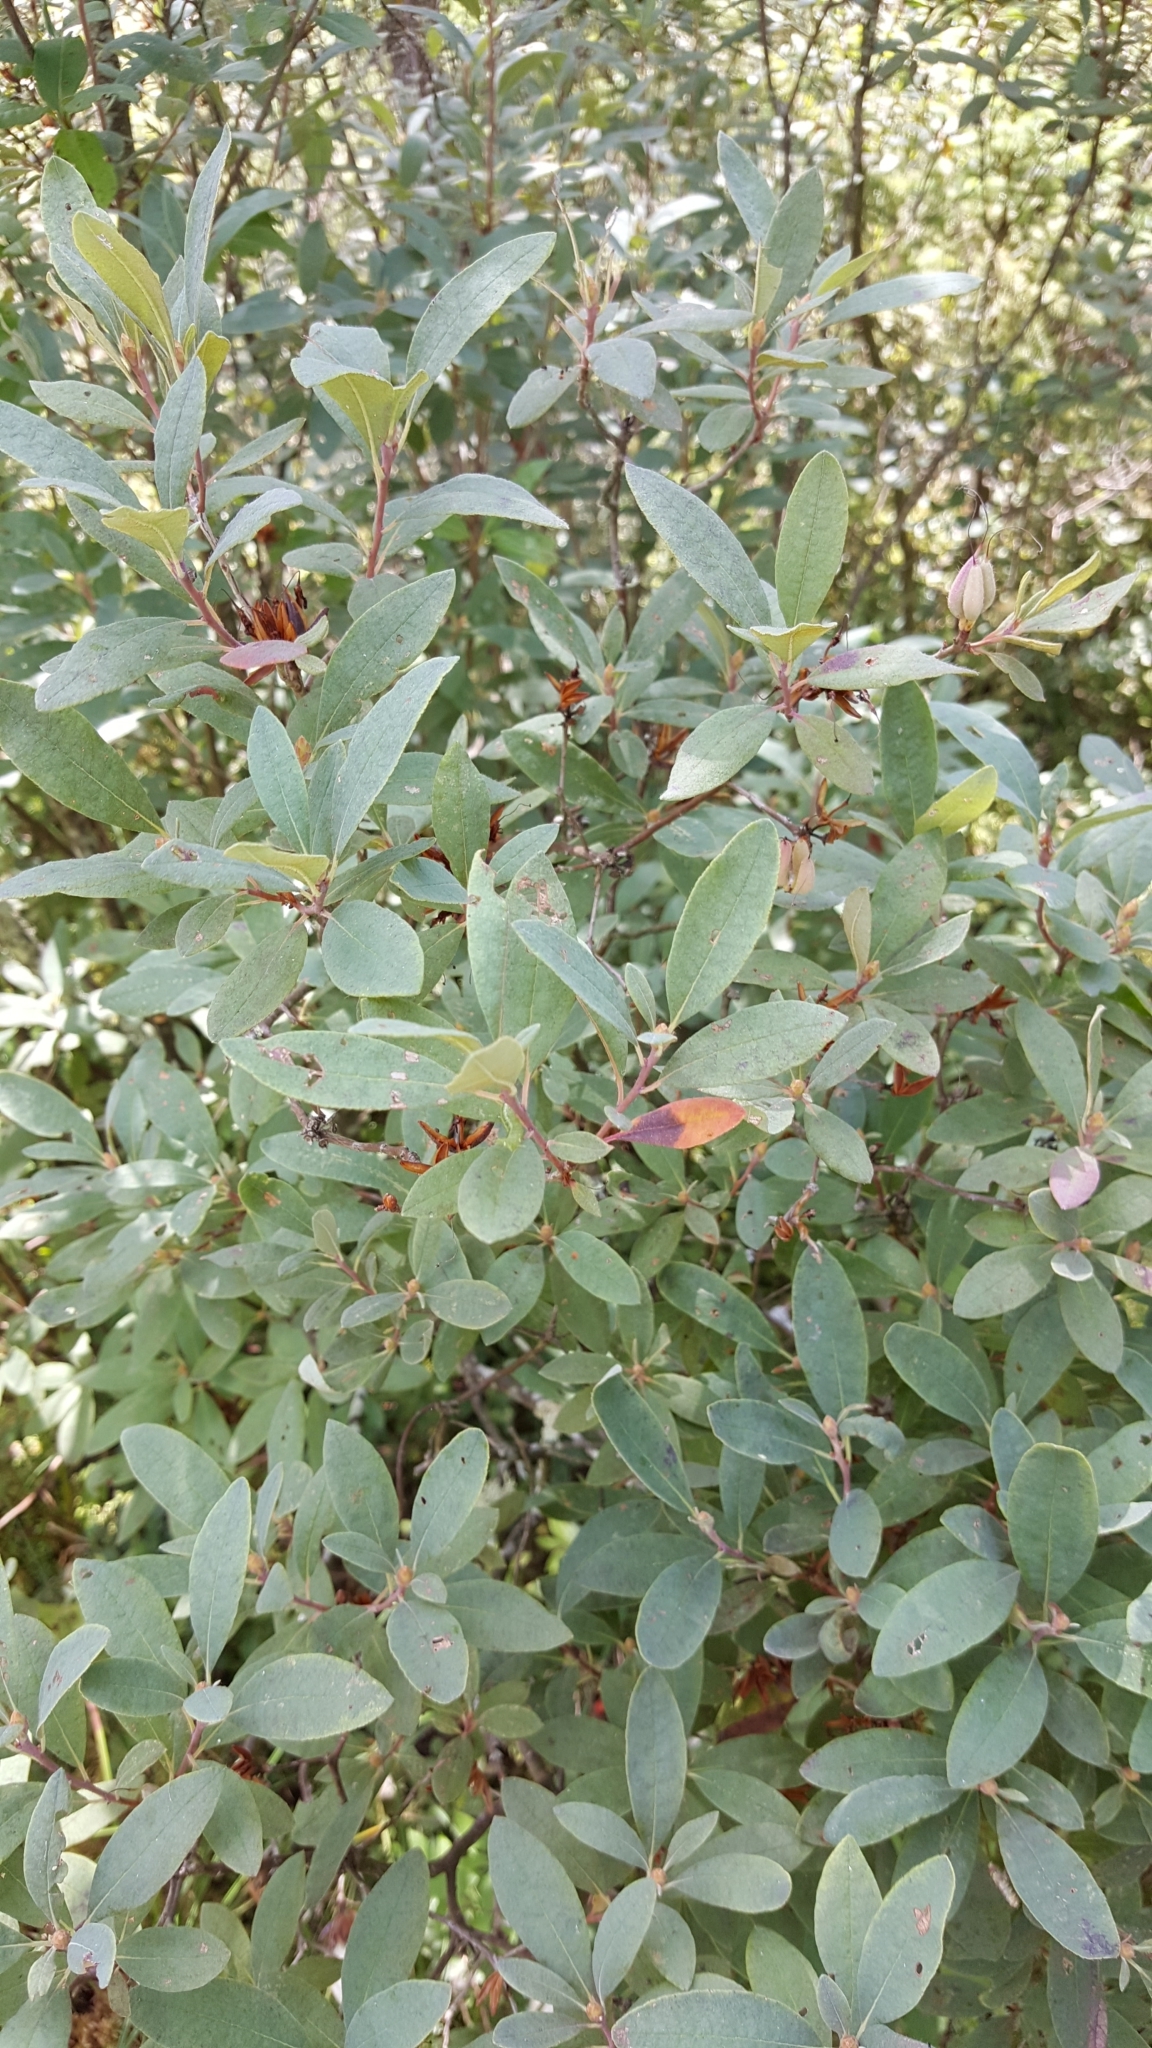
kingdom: Plantae
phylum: Tracheophyta
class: Magnoliopsida
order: Ericales
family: Ericaceae
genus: Rhododendron
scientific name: Rhododendron canadense
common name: Rhodora
